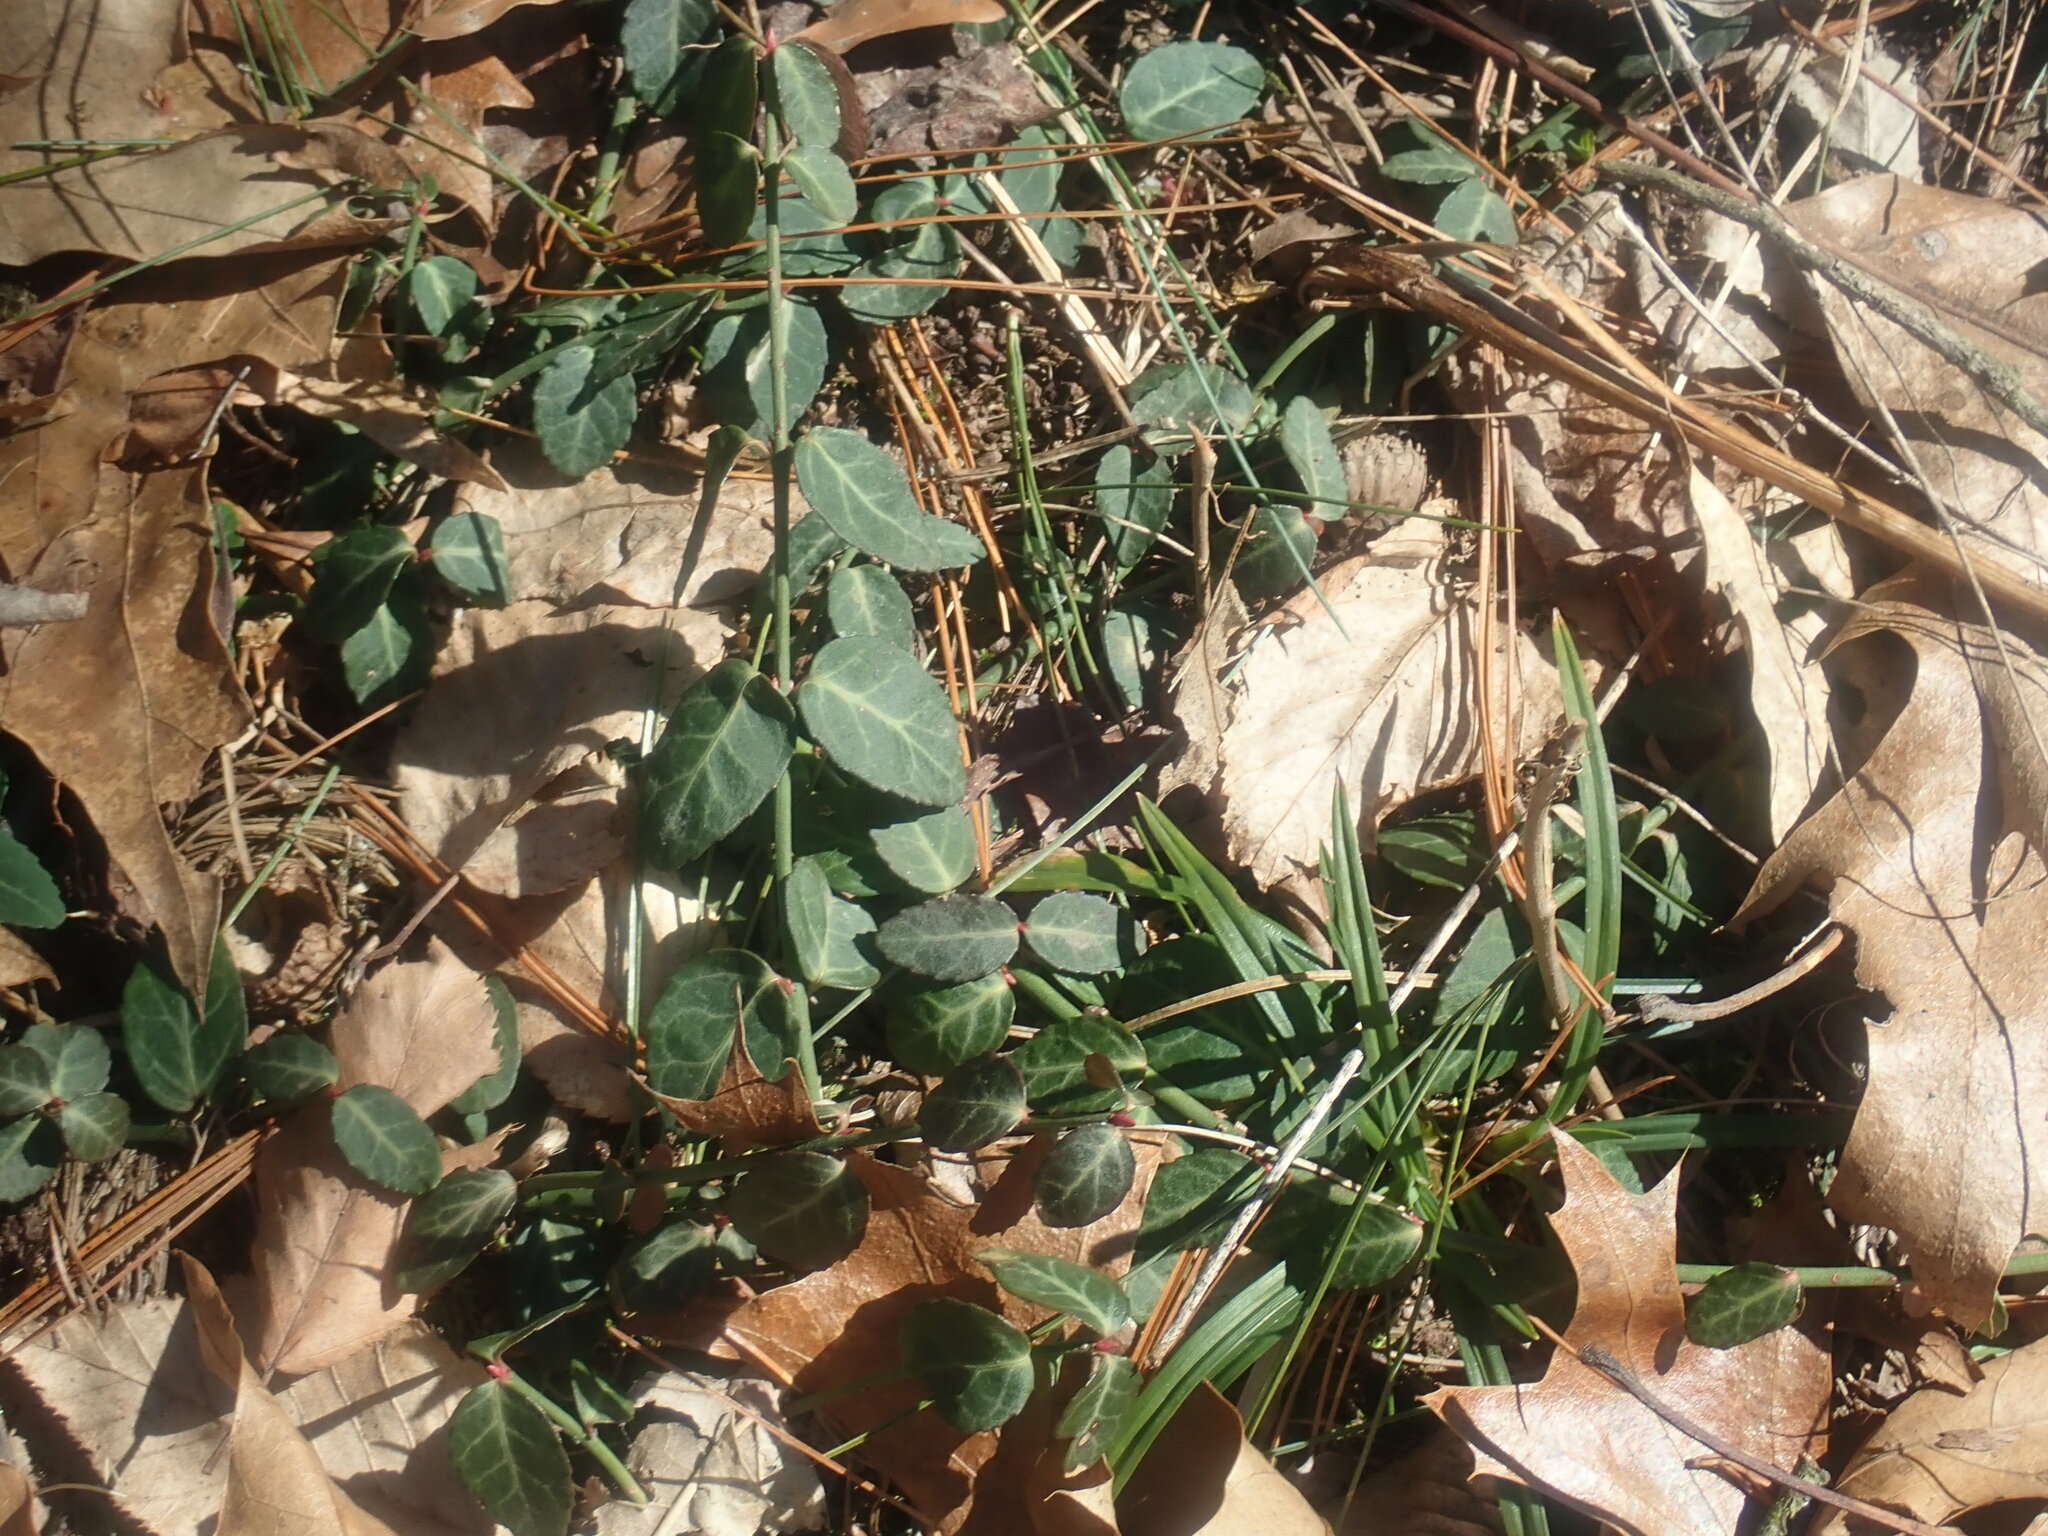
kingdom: Plantae
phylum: Tracheophyta
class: Magnoliopsida
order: Celastrales
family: Celastraceae
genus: Euonymus
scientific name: Euonymus fortunei
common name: Climbing euonymus
